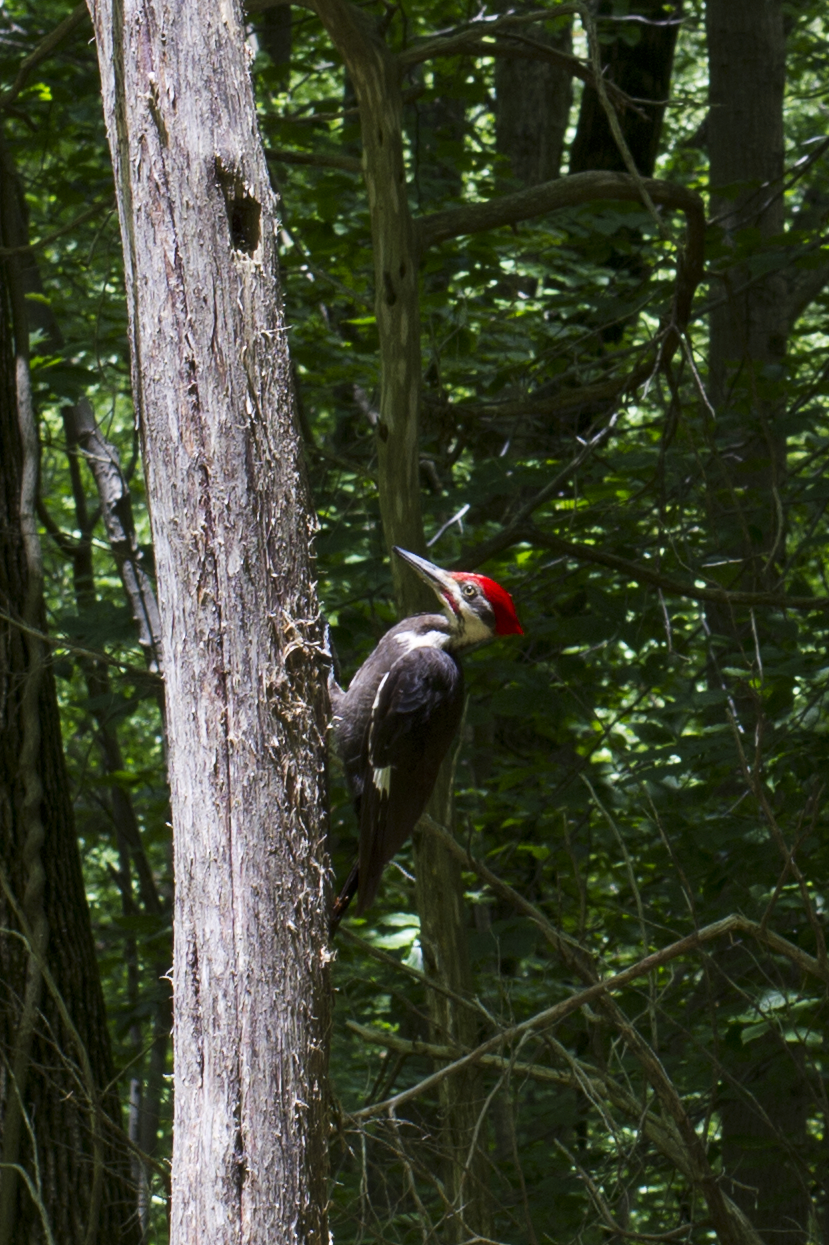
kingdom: Animalia
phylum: Chordata
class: Aves
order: Piciformes
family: Picidae
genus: Dryocopus
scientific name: Dryocopus pileatus
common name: Pileated woodpecker
